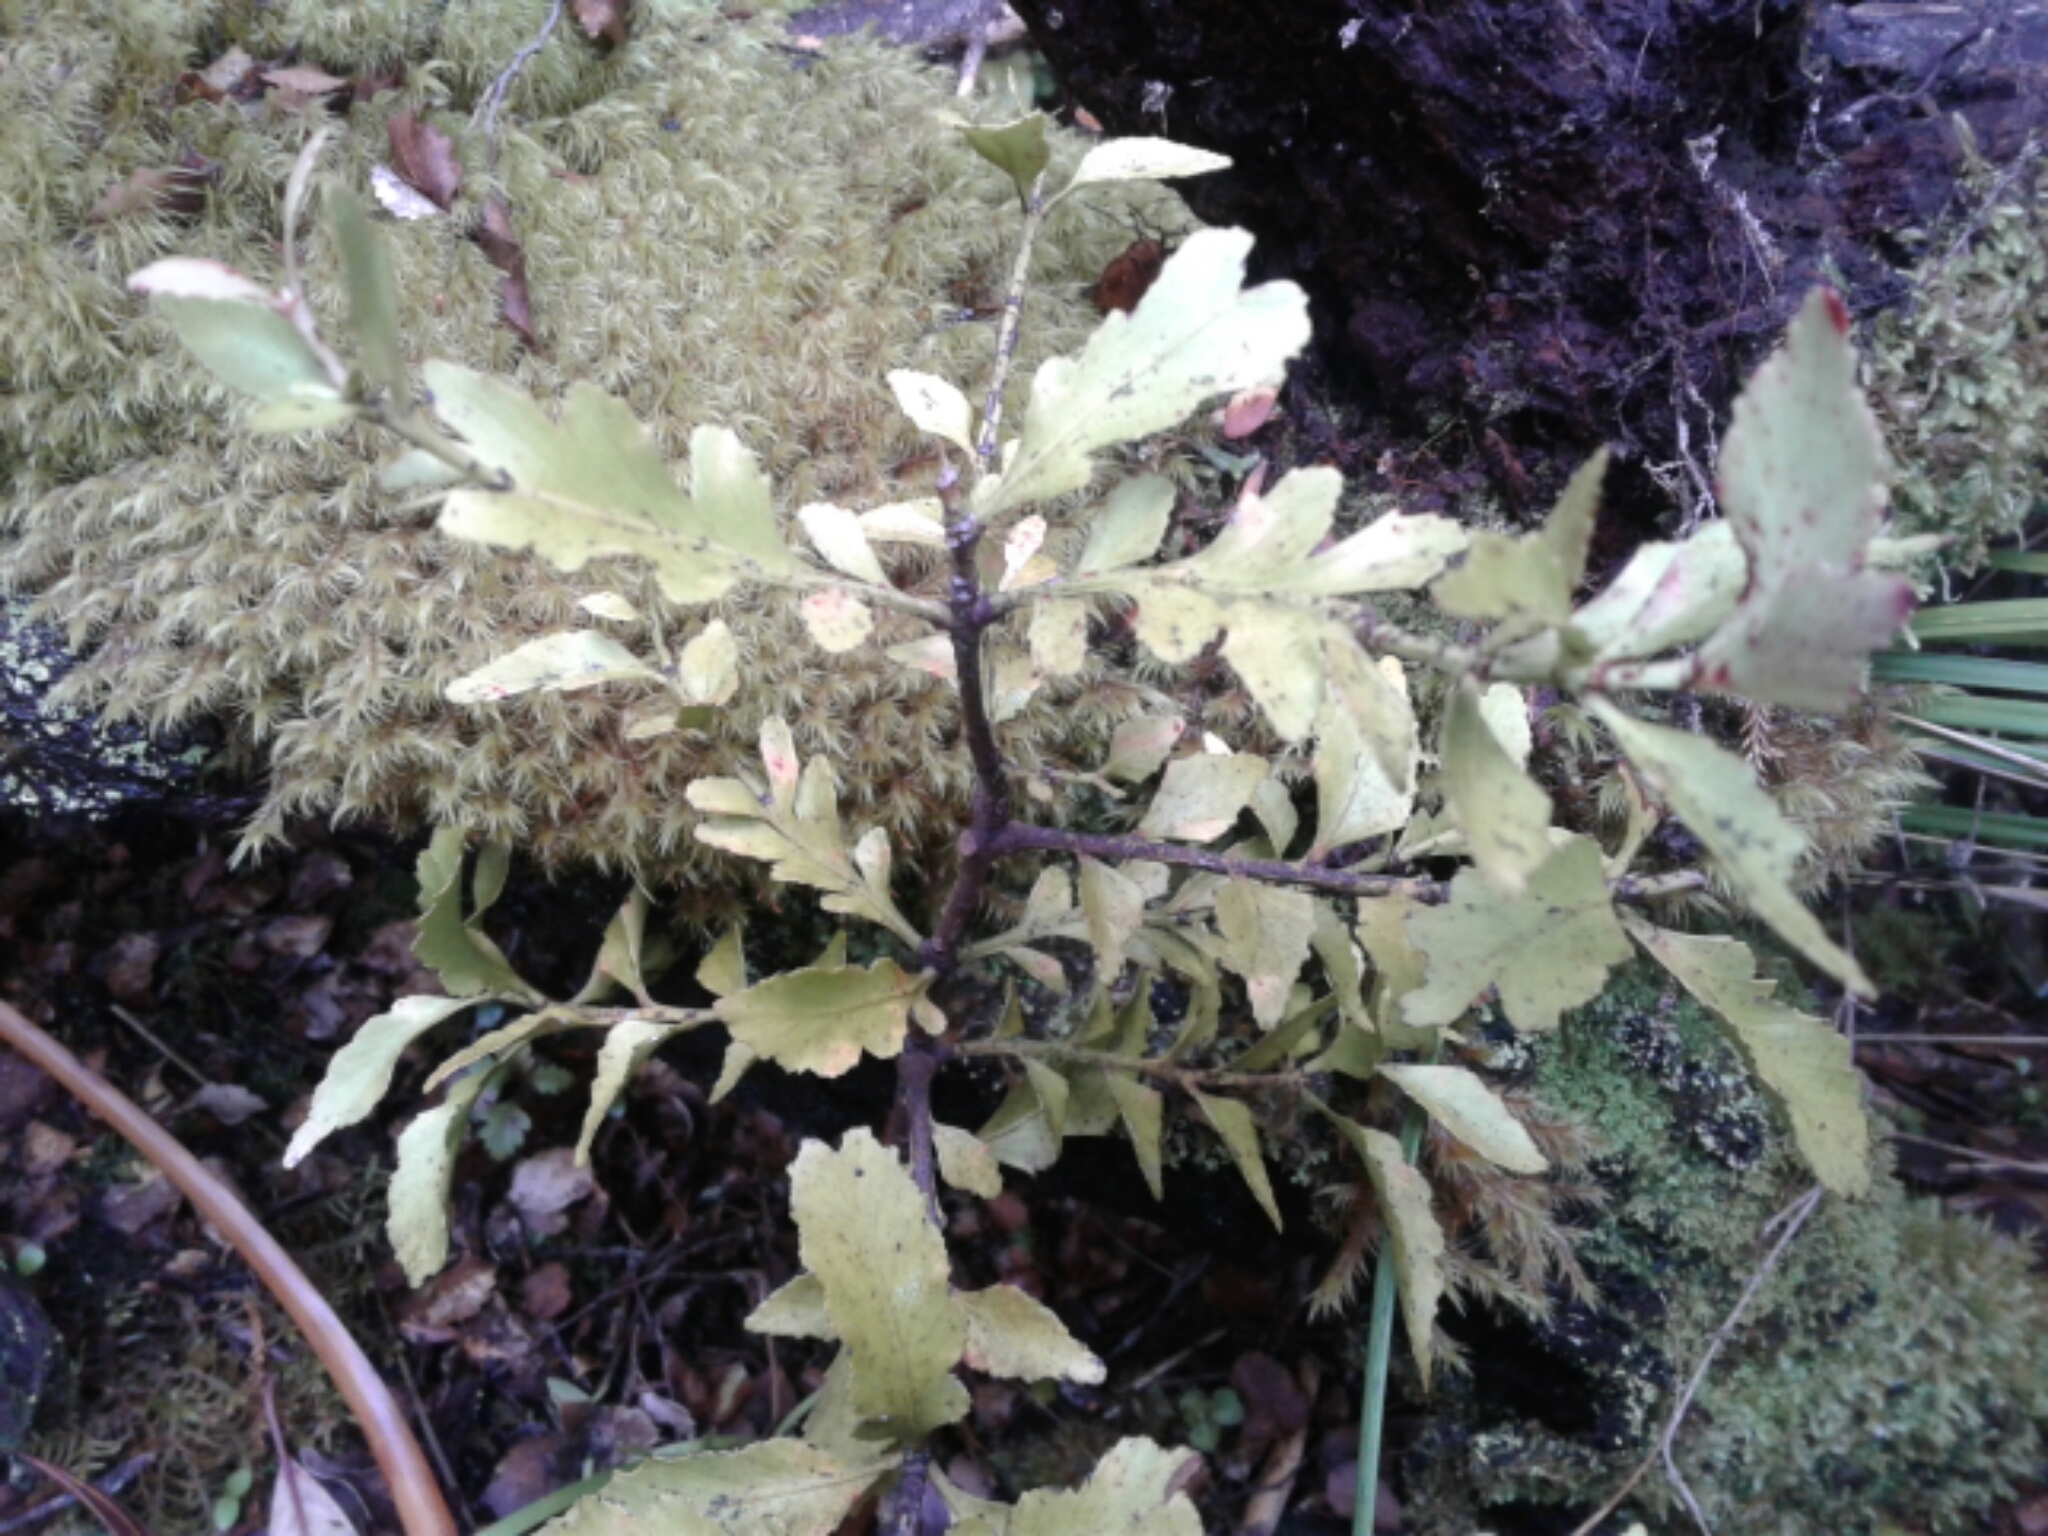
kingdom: Plantae
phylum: Tracheophyta
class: Pinopsida
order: Pinales
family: Phyllocladaceae
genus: Phyllocladus
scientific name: Phyllocladus trichomanoides
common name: Celery pine
